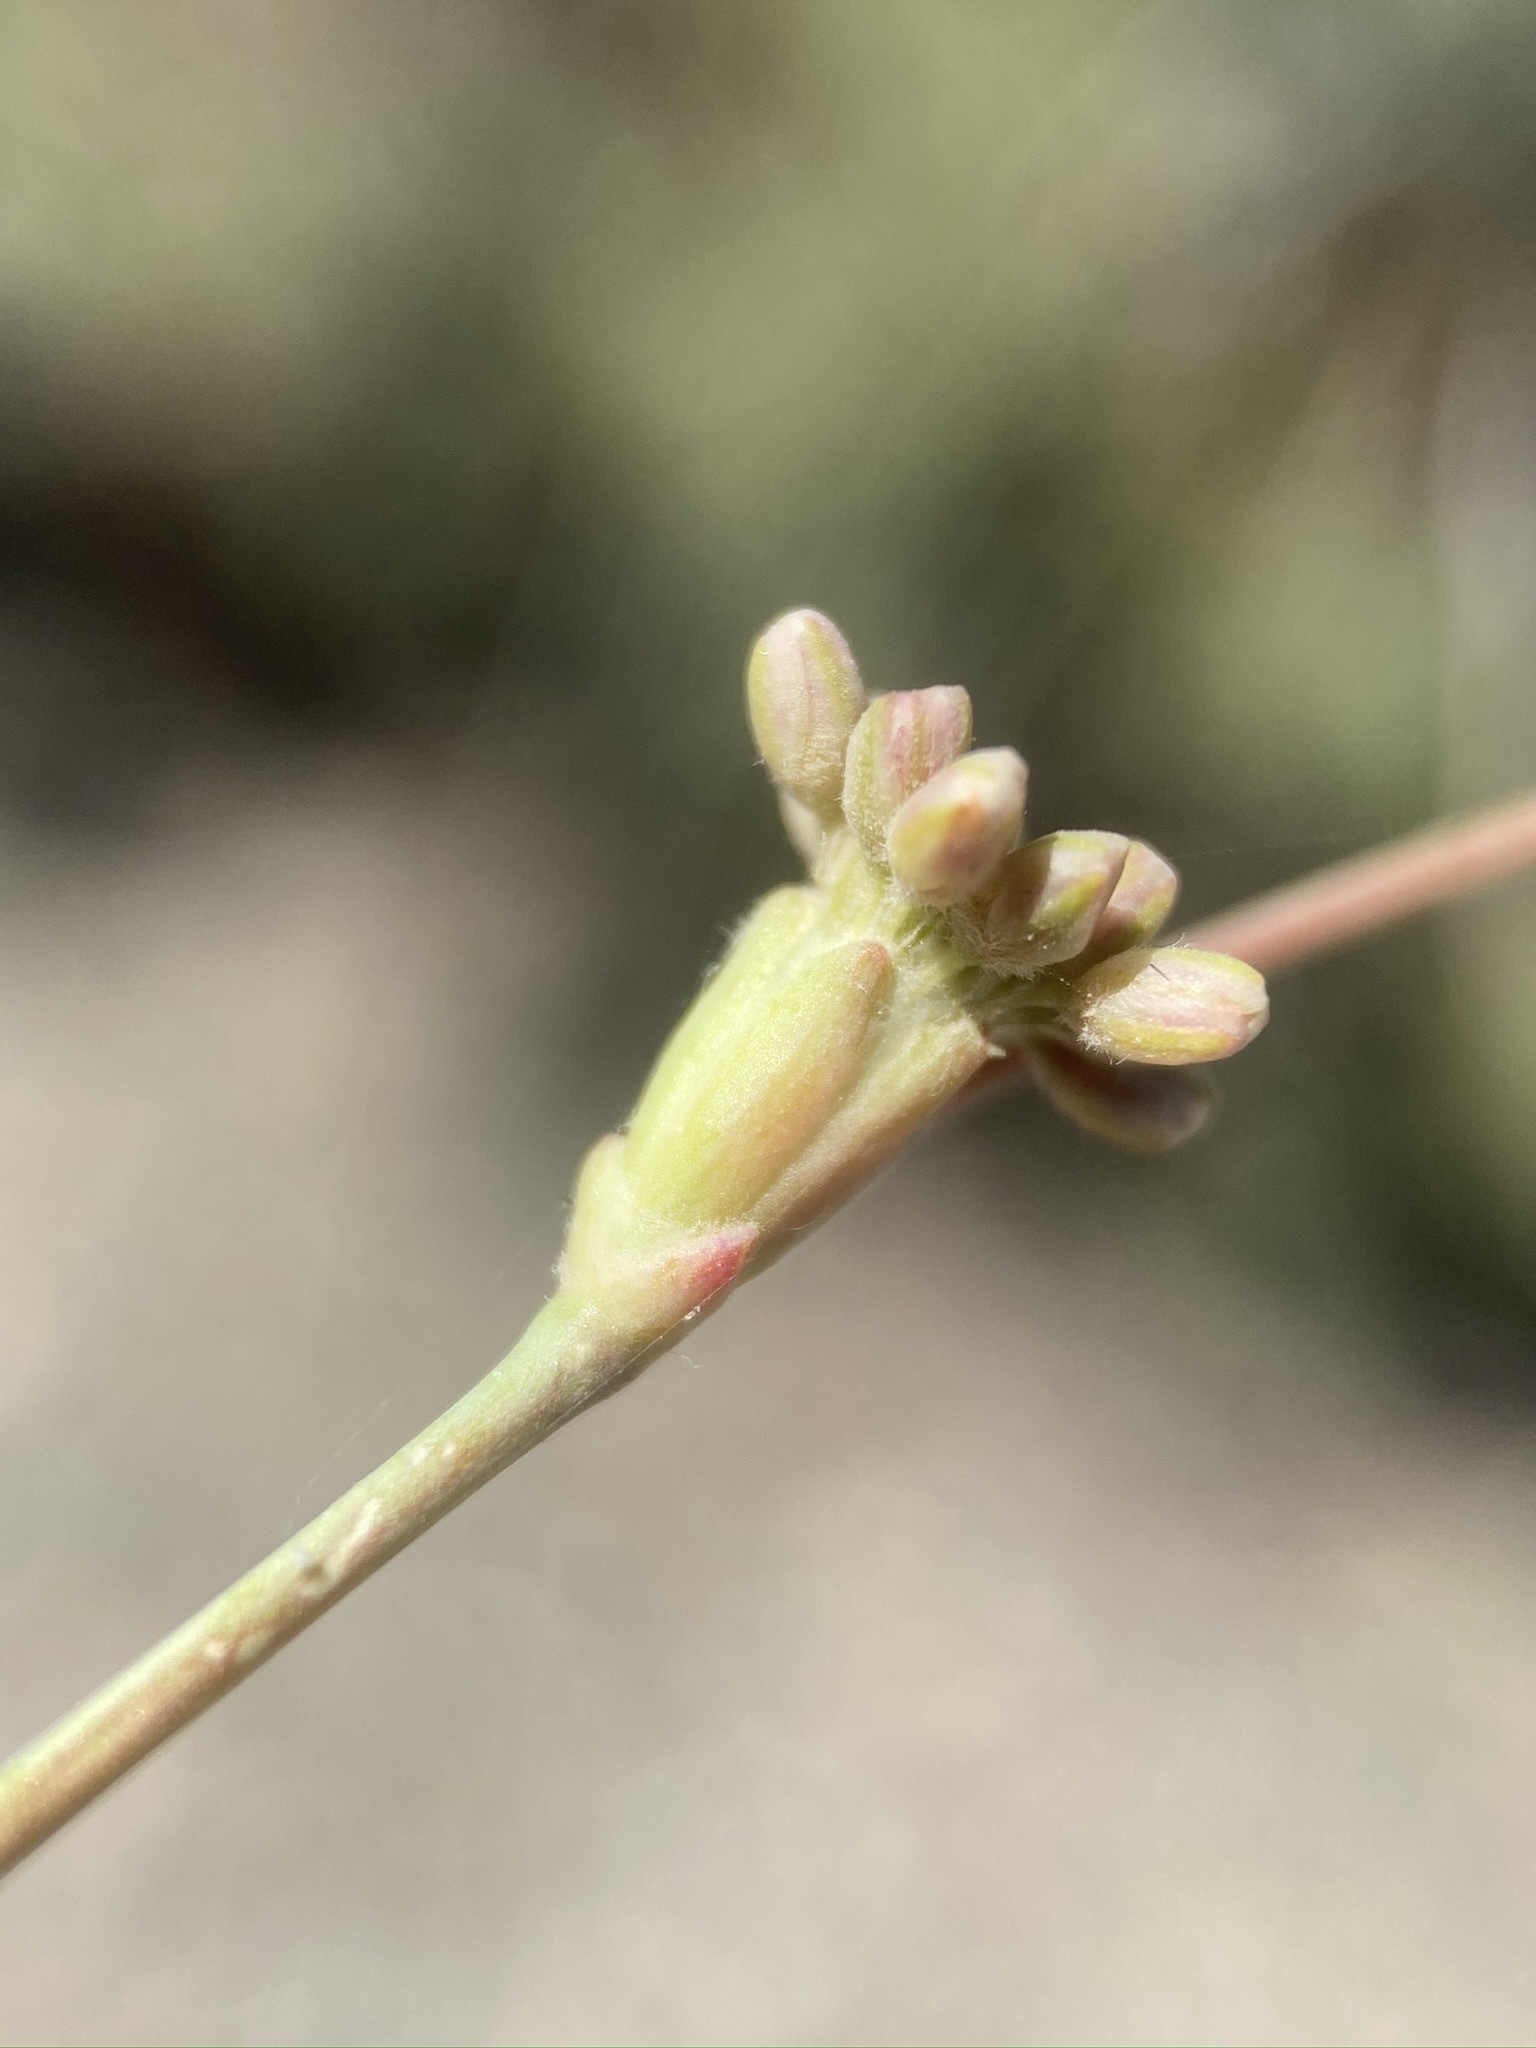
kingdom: Plantae
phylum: Tracheophyta
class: Magnoliopsida
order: Caryophyllales
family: Polygonaceae
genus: Eriogonum
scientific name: Eriogonum nudum
